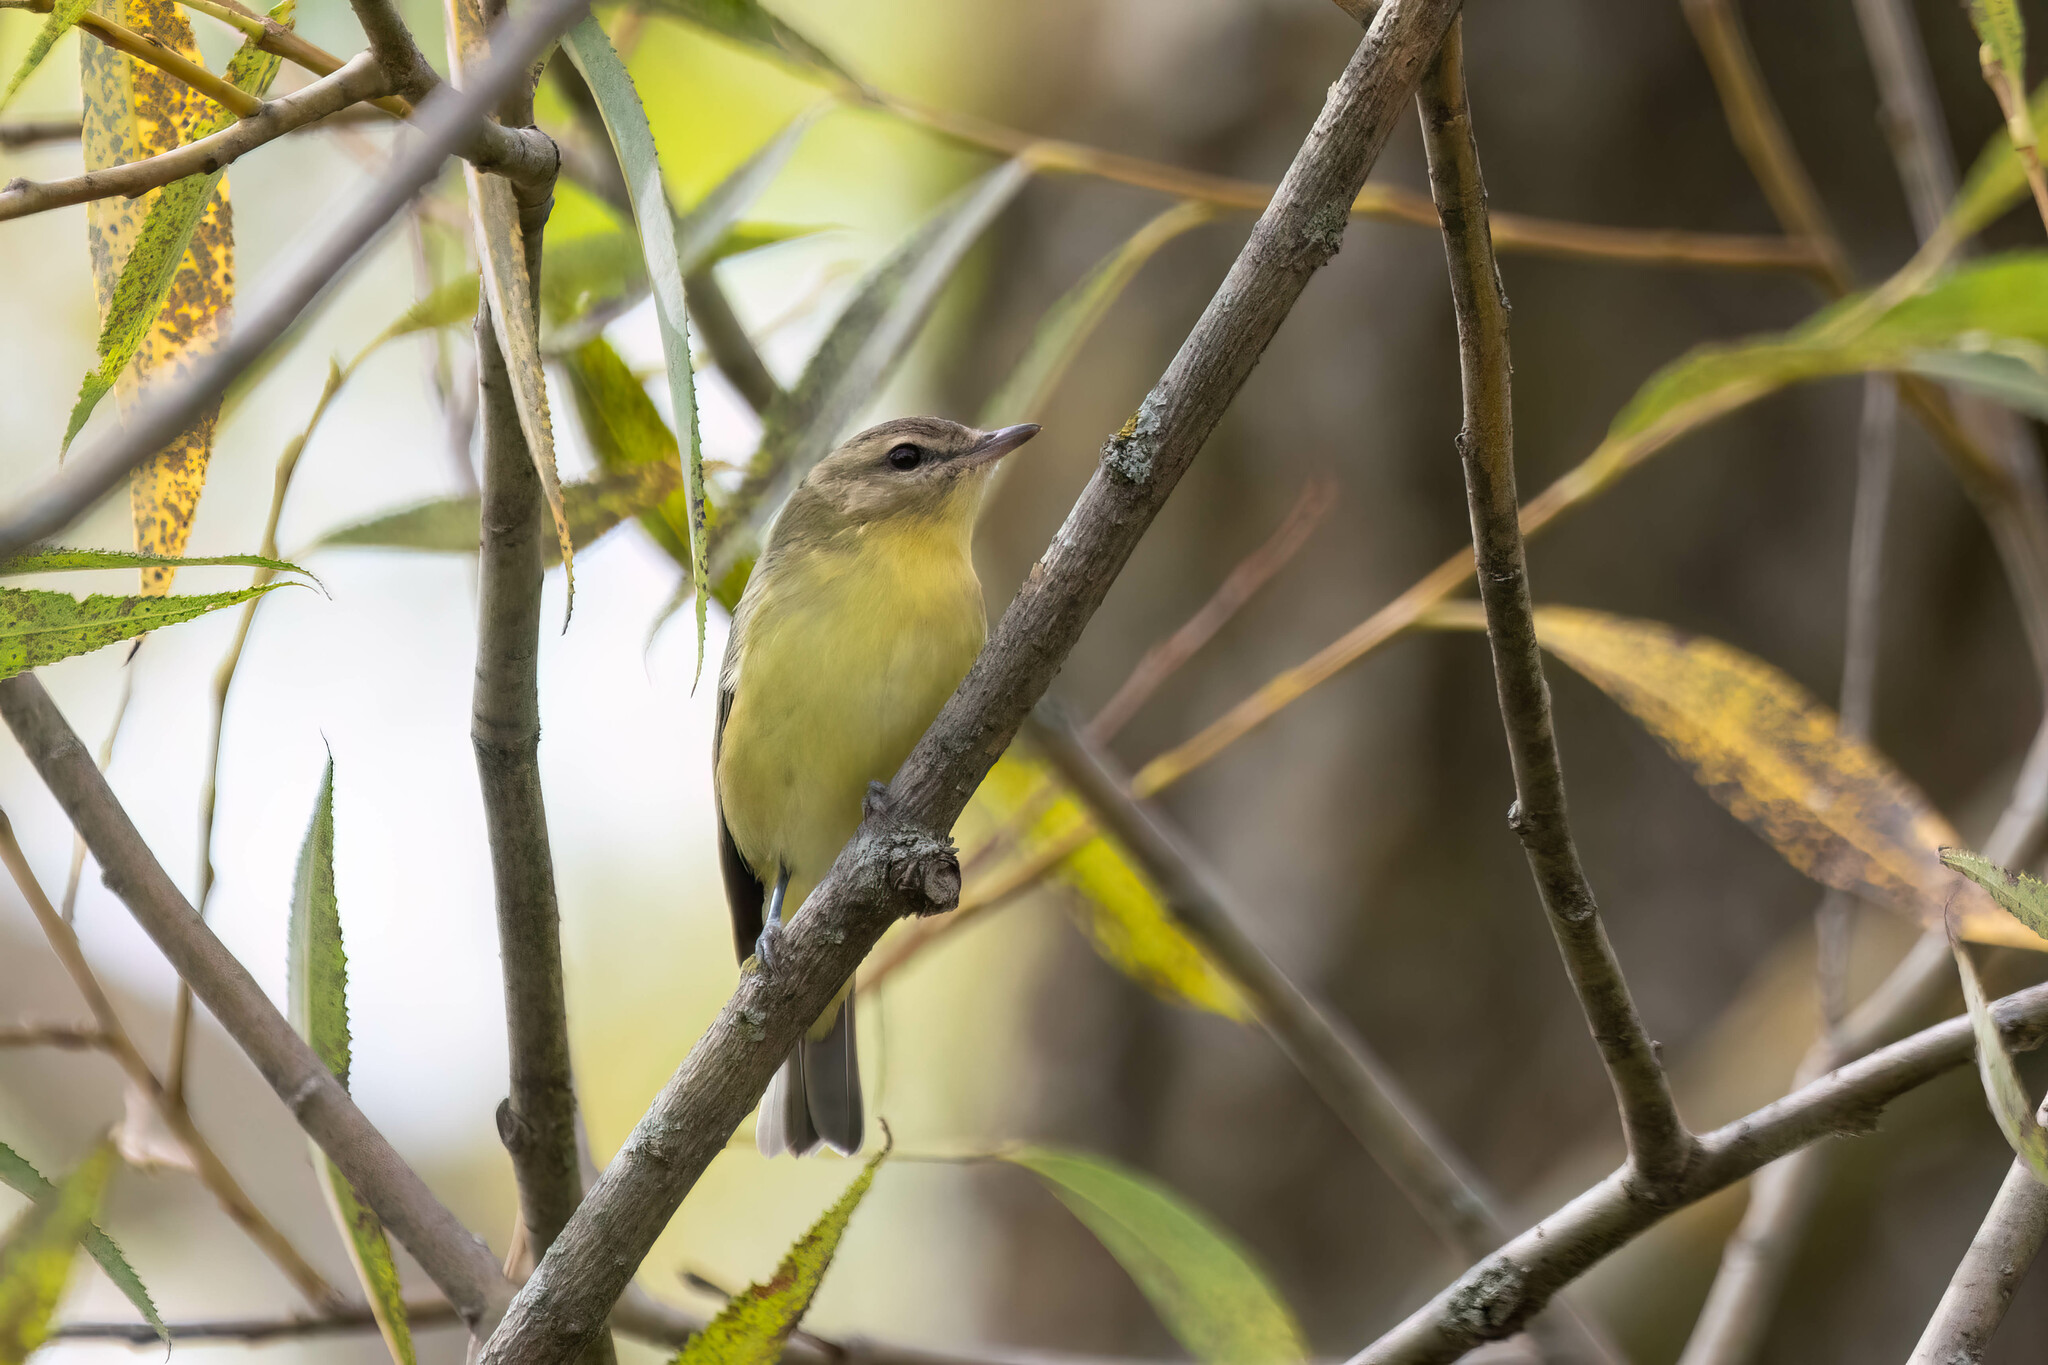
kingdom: Animalia
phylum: Chordata
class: Aves
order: Passeriformes
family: Vireonidae
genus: Vireo
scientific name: Vireo philadelphicus
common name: Philadelphia vireo
